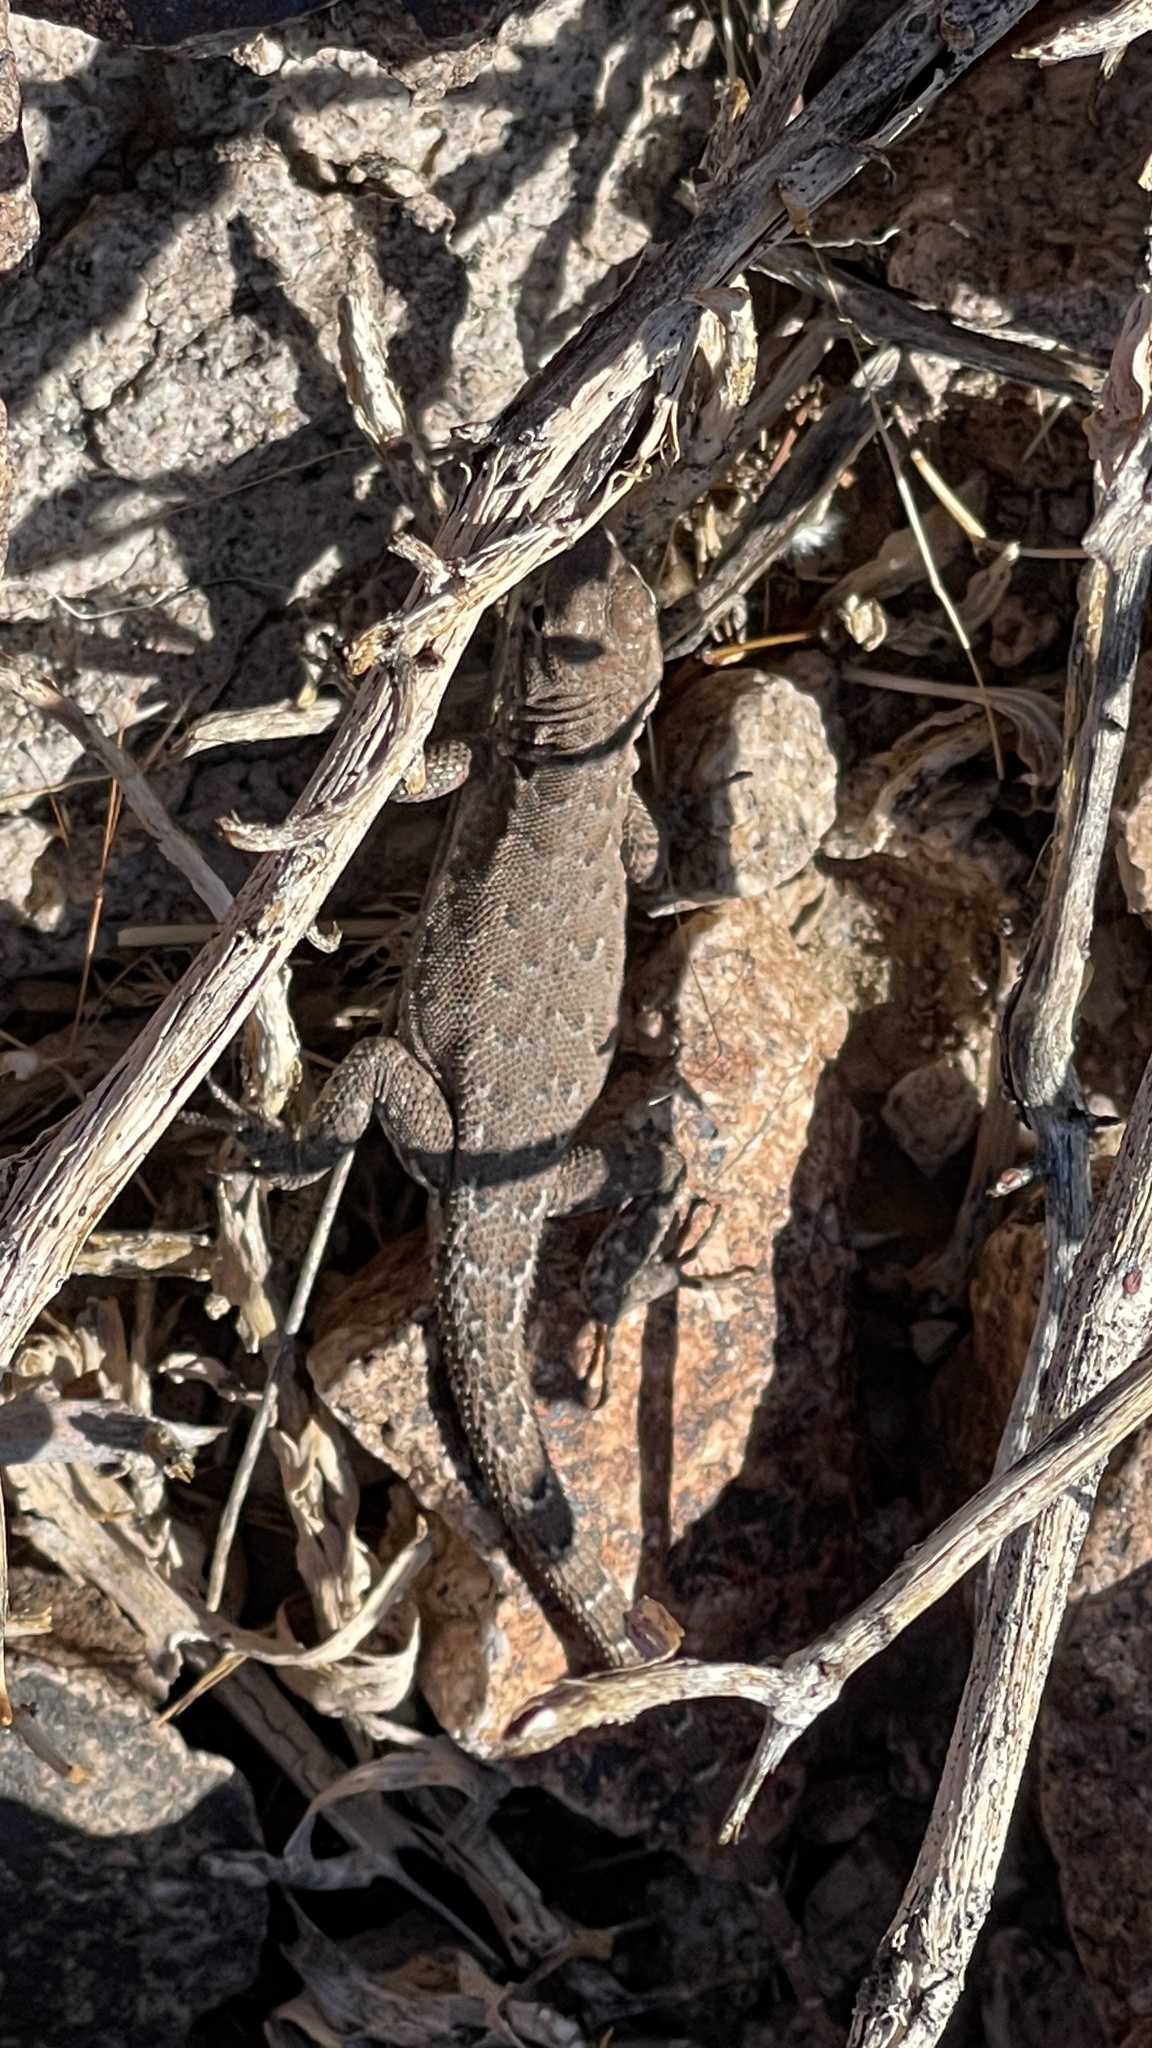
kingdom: Animalia
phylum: Chordata
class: Squamata
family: Phrynosomatidae
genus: Uta
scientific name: Uta stansburiana
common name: Side-blotched lizard
